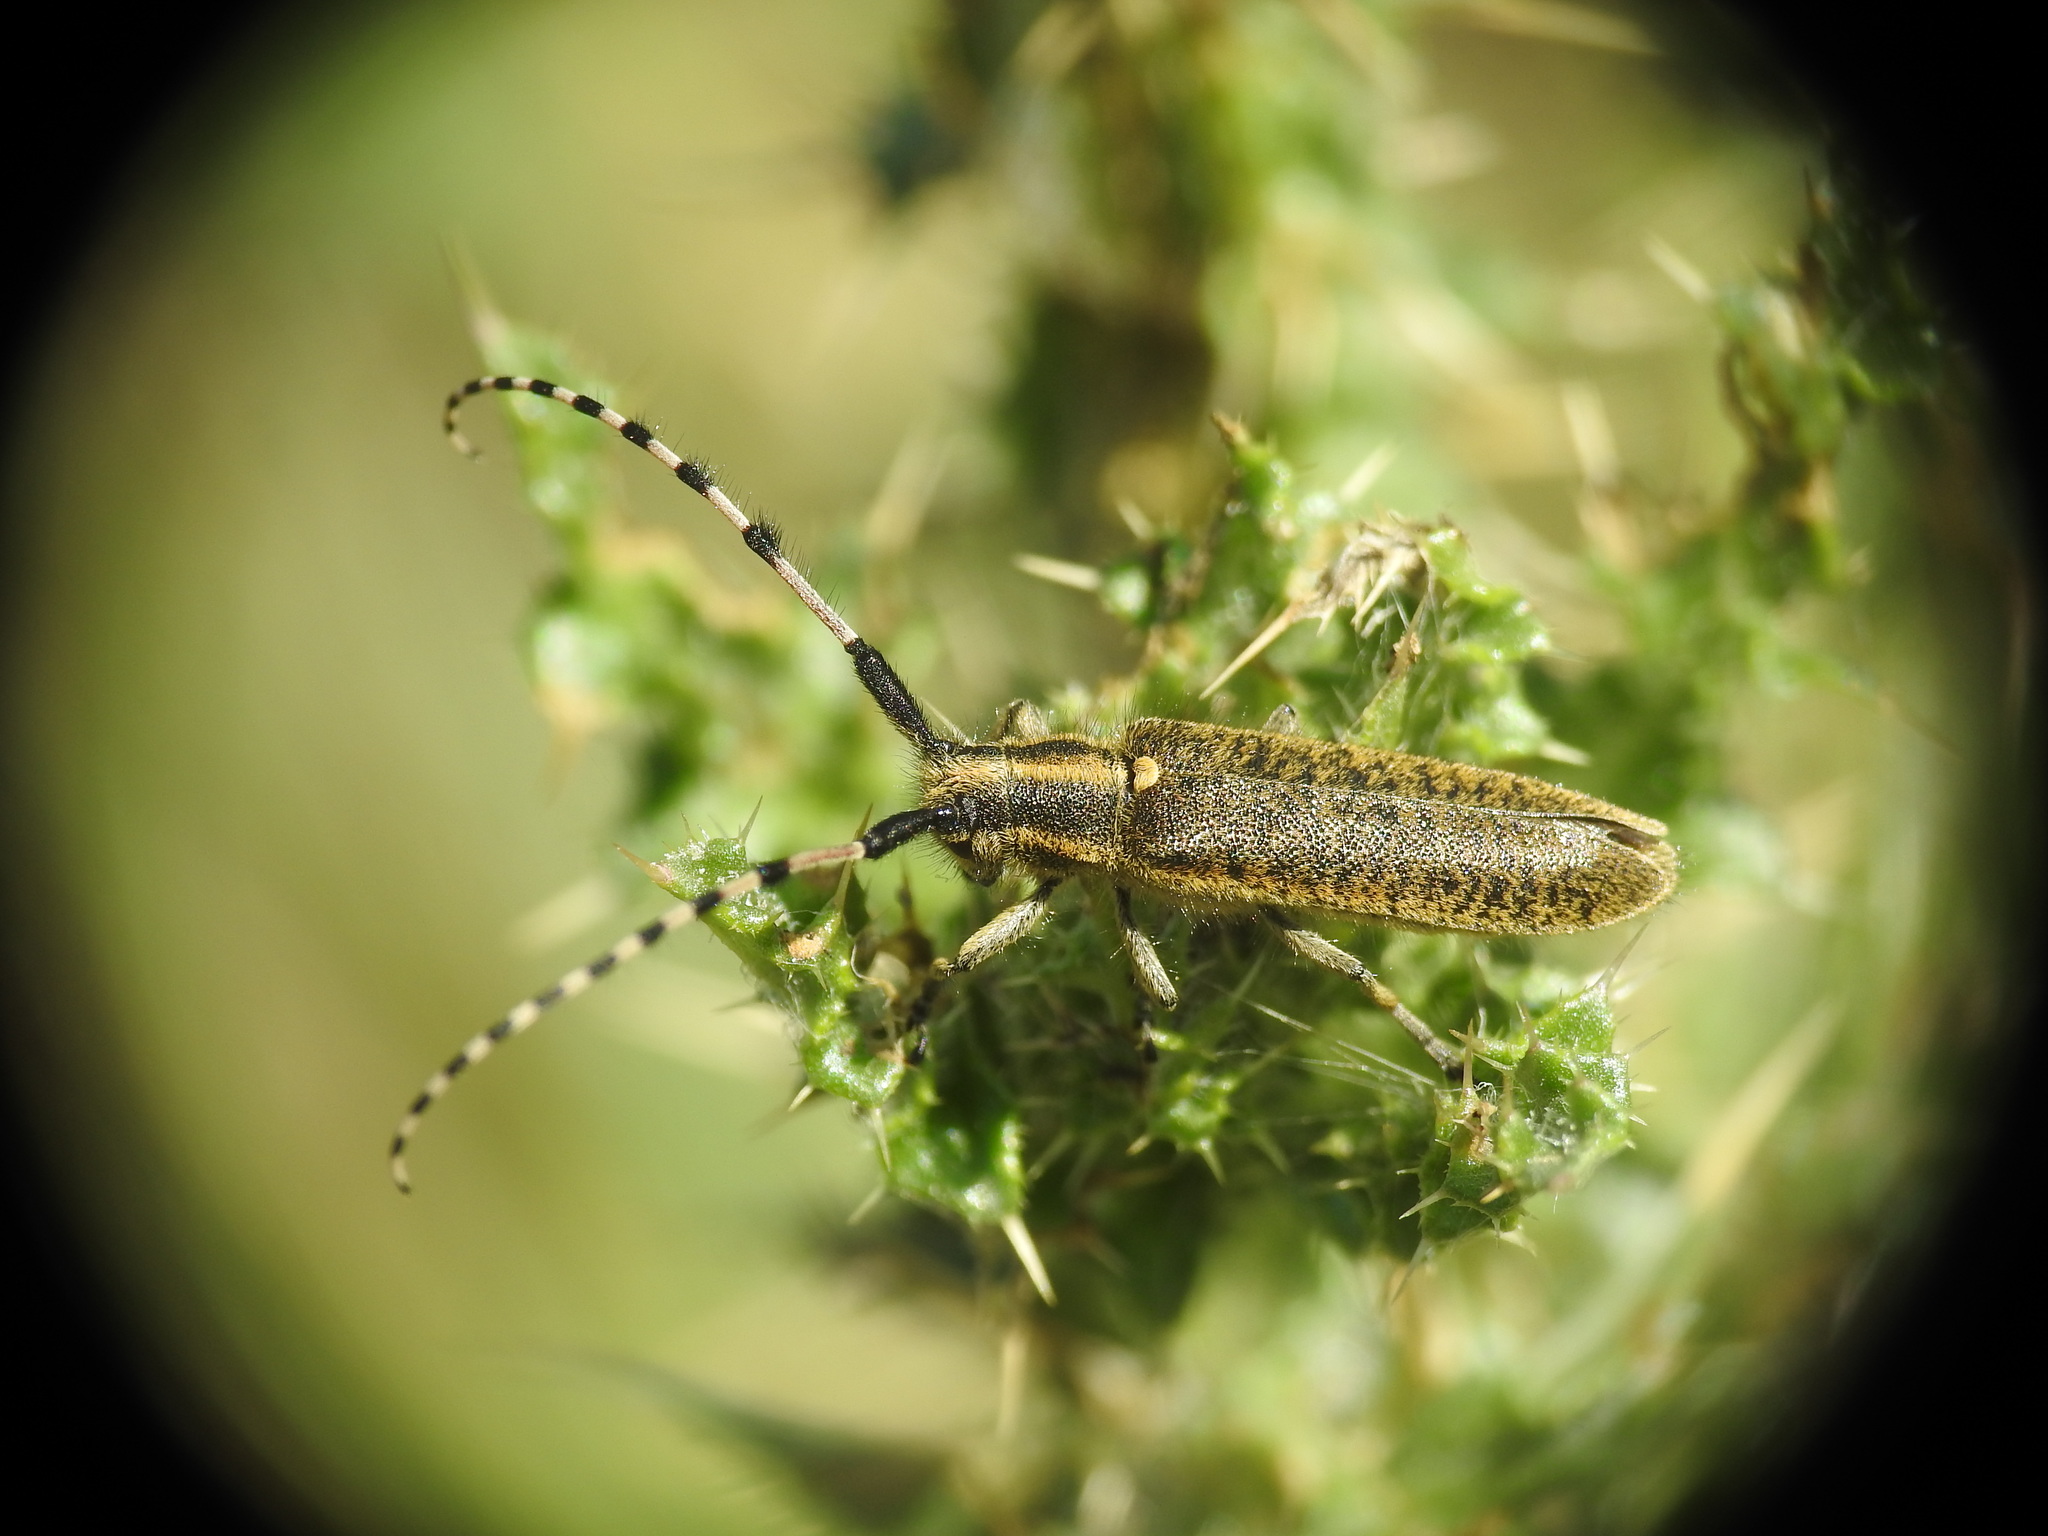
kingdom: Animalia
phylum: Arthropoda
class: Insecta
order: Coleoptera
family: Cerambycidae
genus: Agapanthia
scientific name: Agapanthia dahlii
